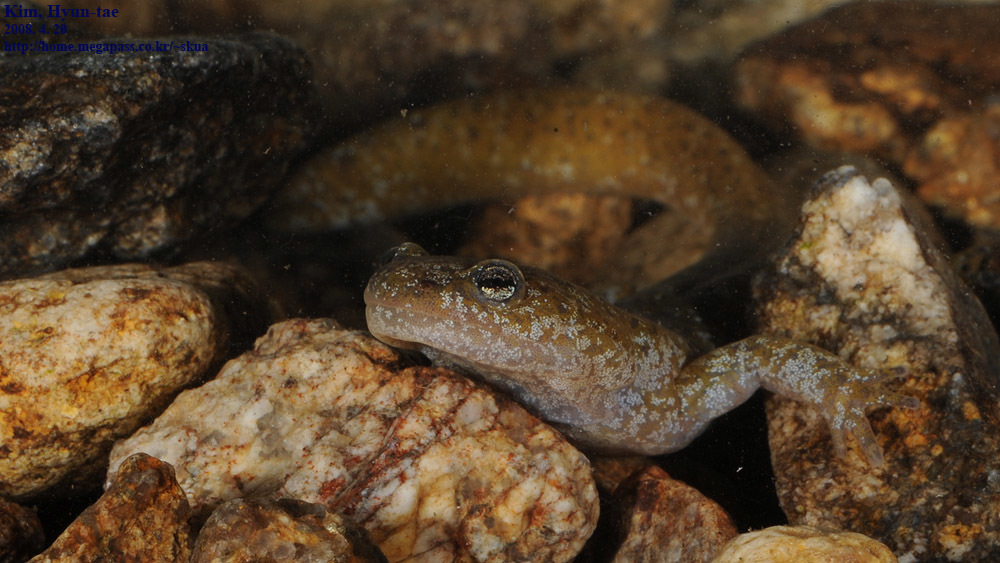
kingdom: Animalia
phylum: Chordata
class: Amphibia
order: Caudata
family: Hynobiidae
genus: Hynobius
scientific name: Hynobius leechii
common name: Gensan salamander
